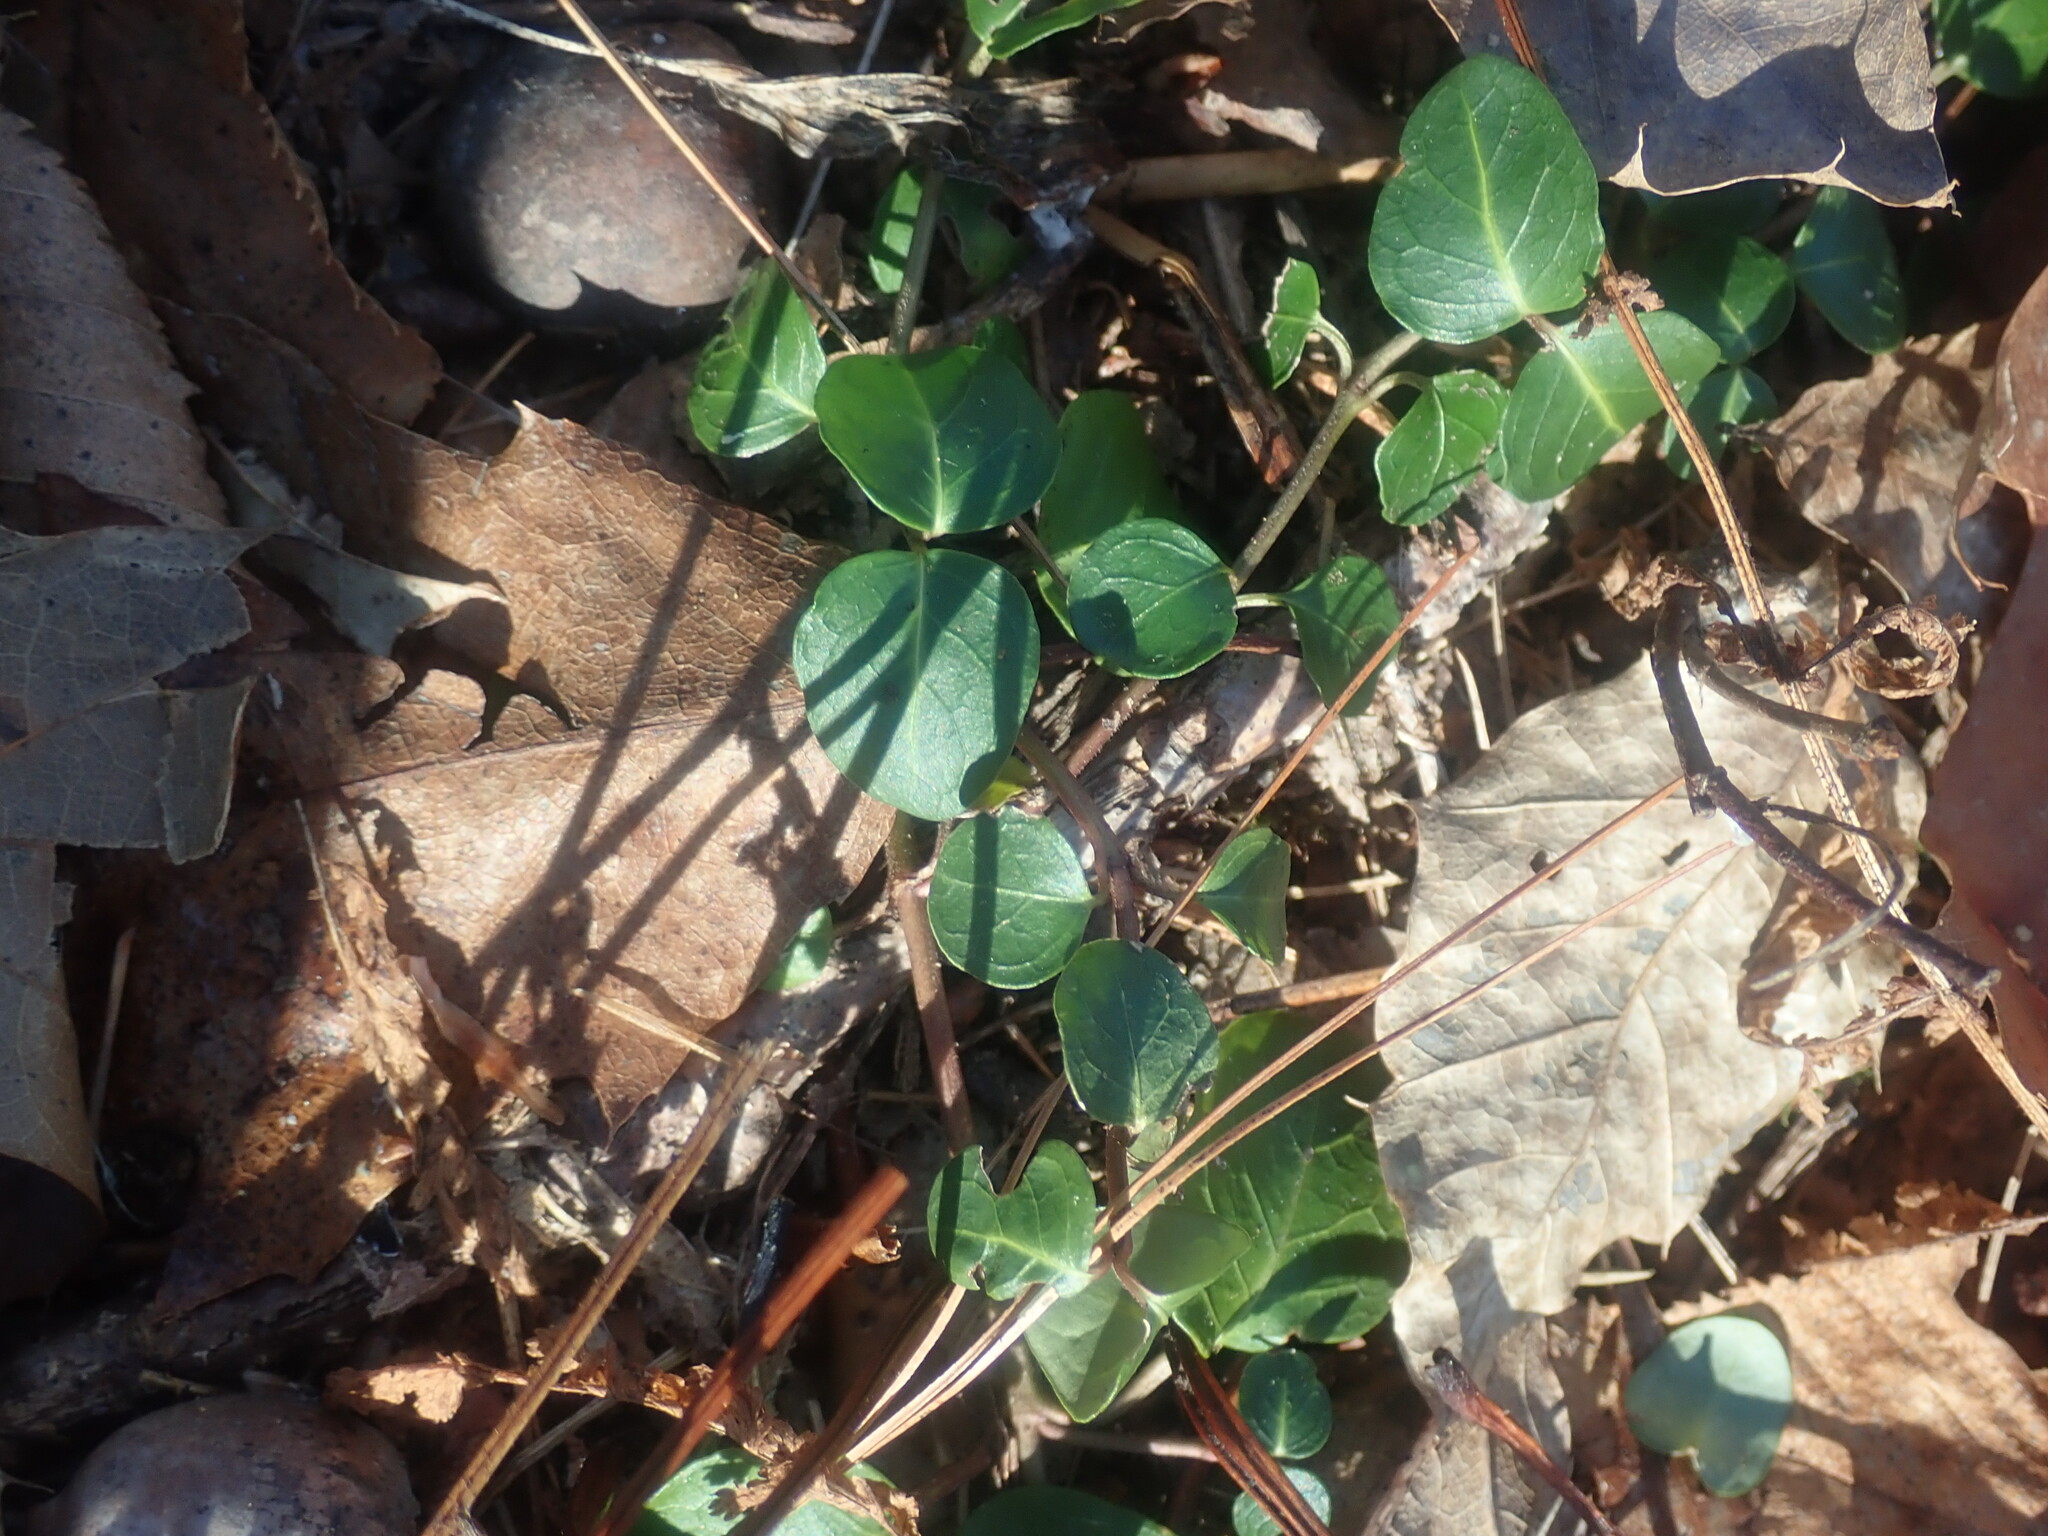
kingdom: Plantae
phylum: Tracheophyta
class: Magnoliopsida
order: Gentianales
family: Rubiaceae
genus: Mitchella
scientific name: Mitchella repens
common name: Partridge-berry
